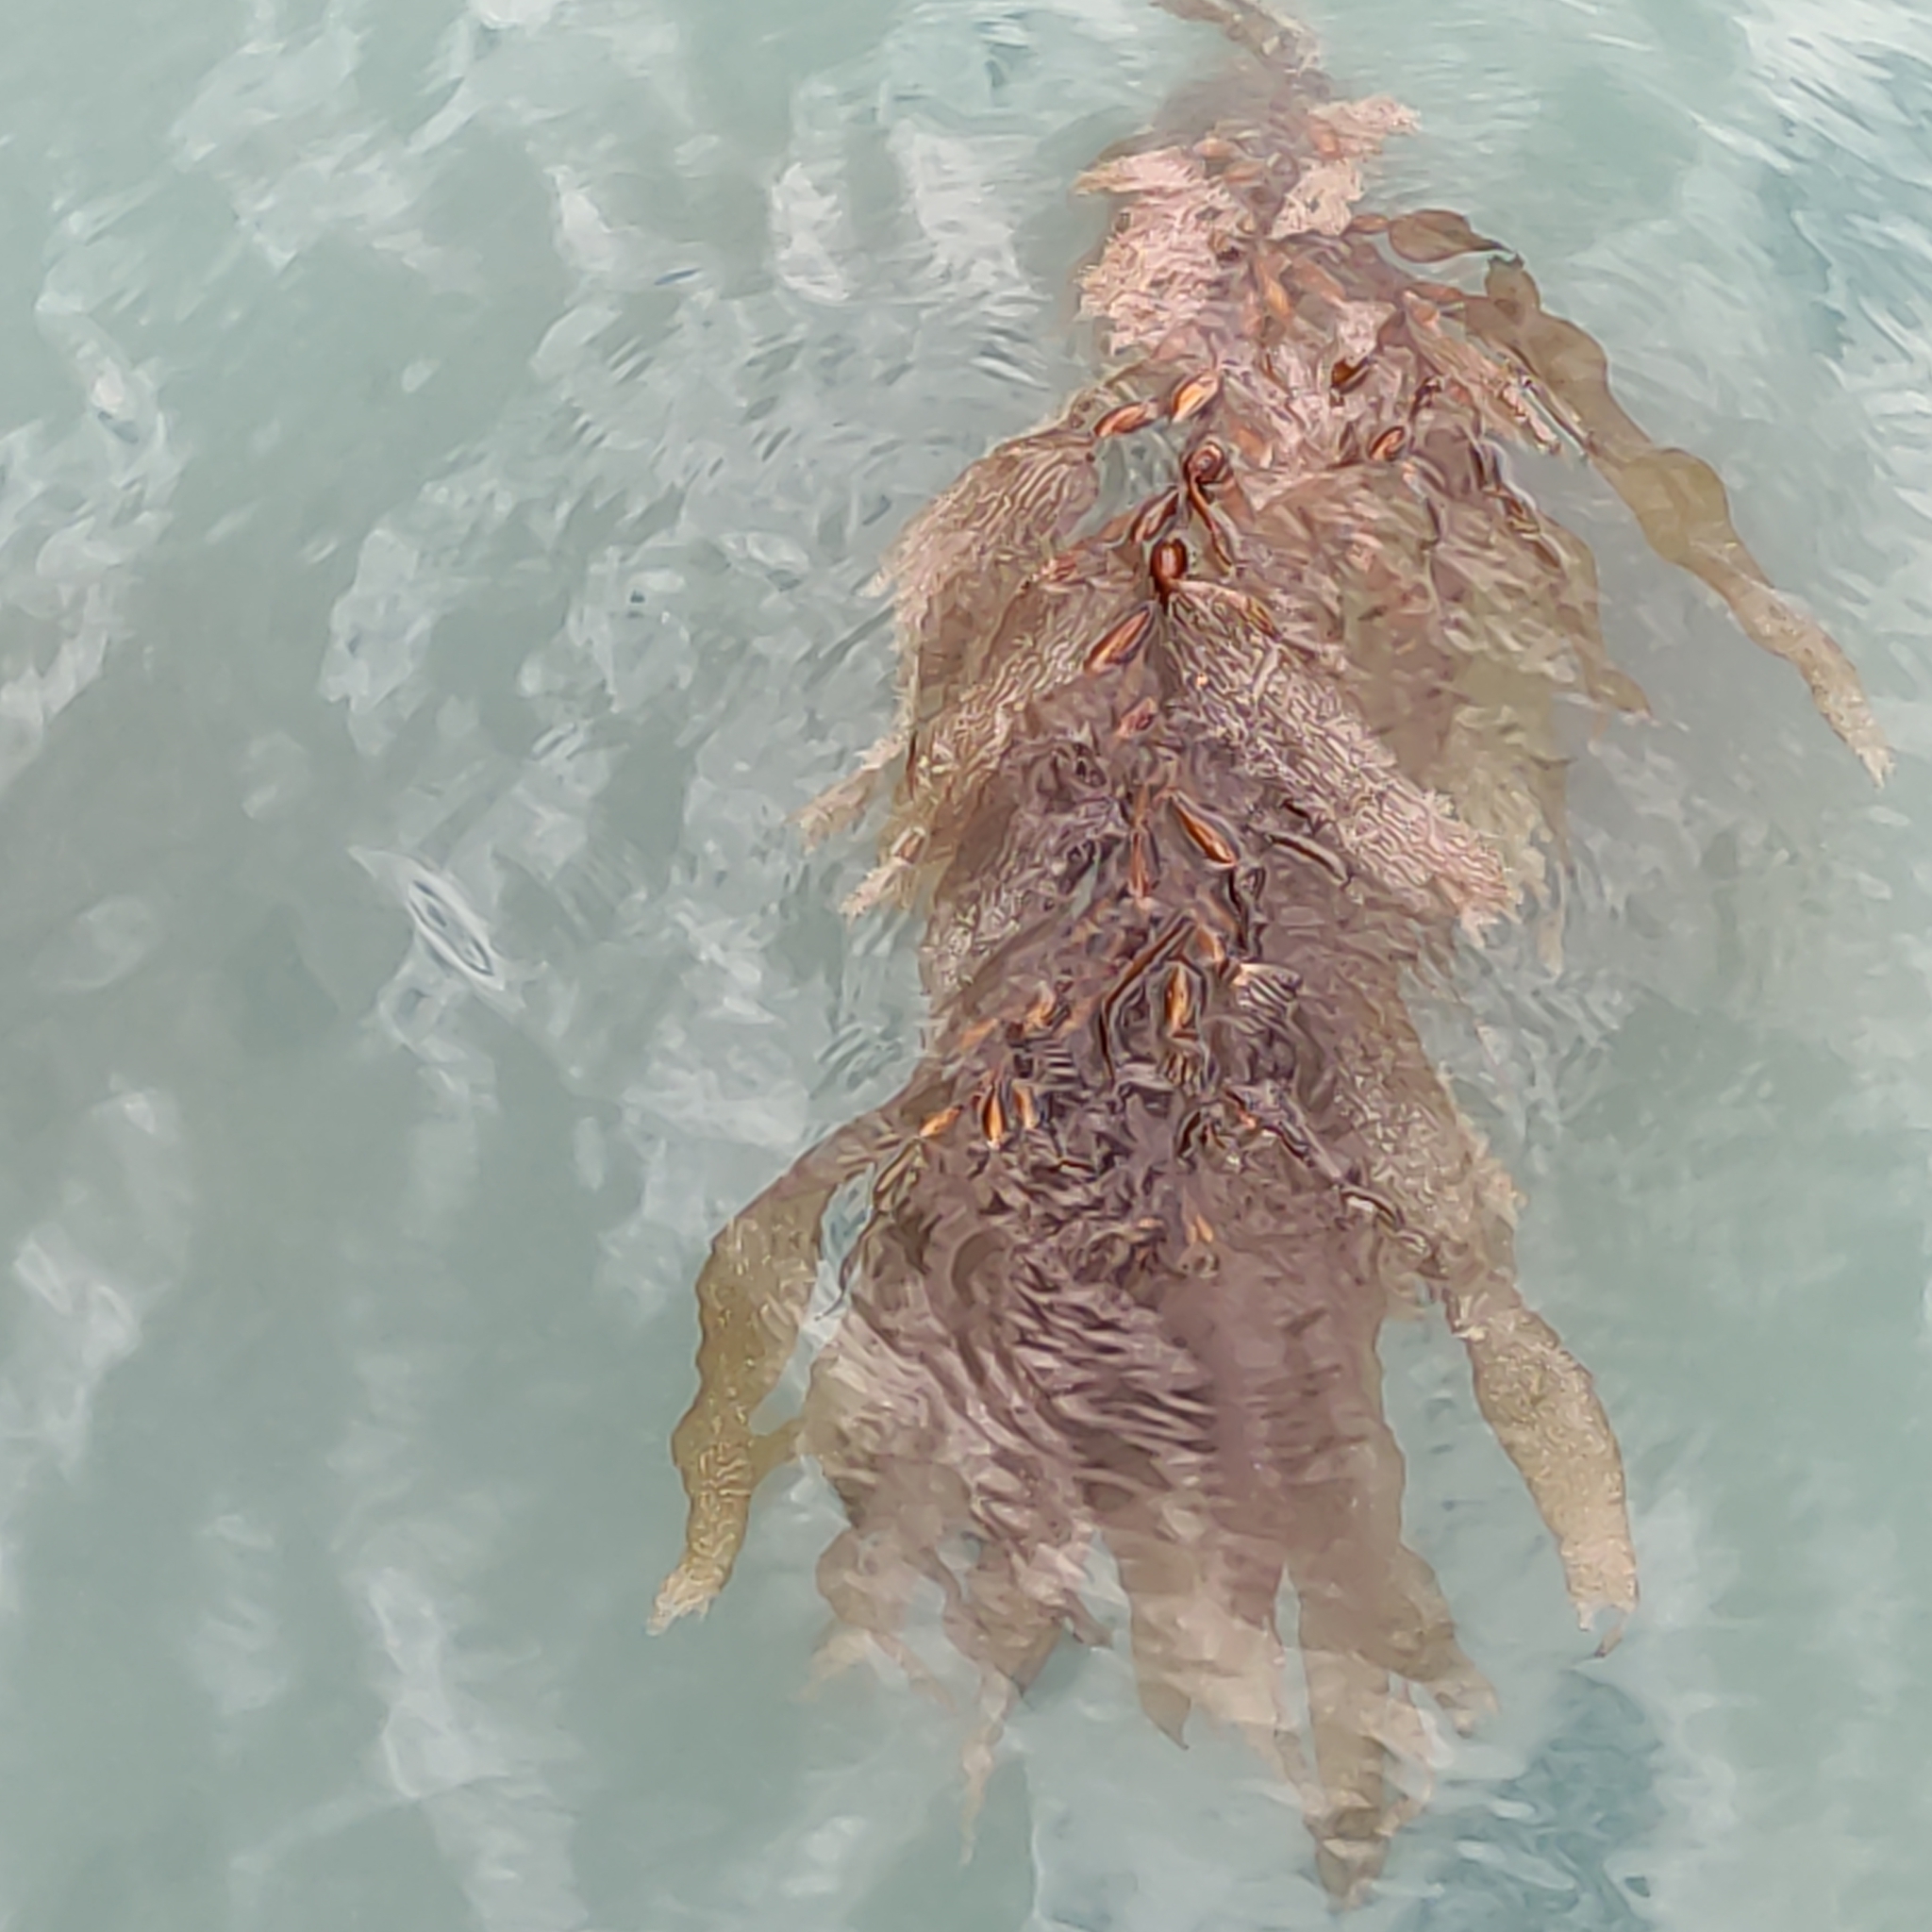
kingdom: Chromista
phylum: Ochrophyta
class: Phaeophyceae
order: Laminariales
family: Laminariaceae
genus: Macrocystis
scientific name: Macrocystis pyrifera
